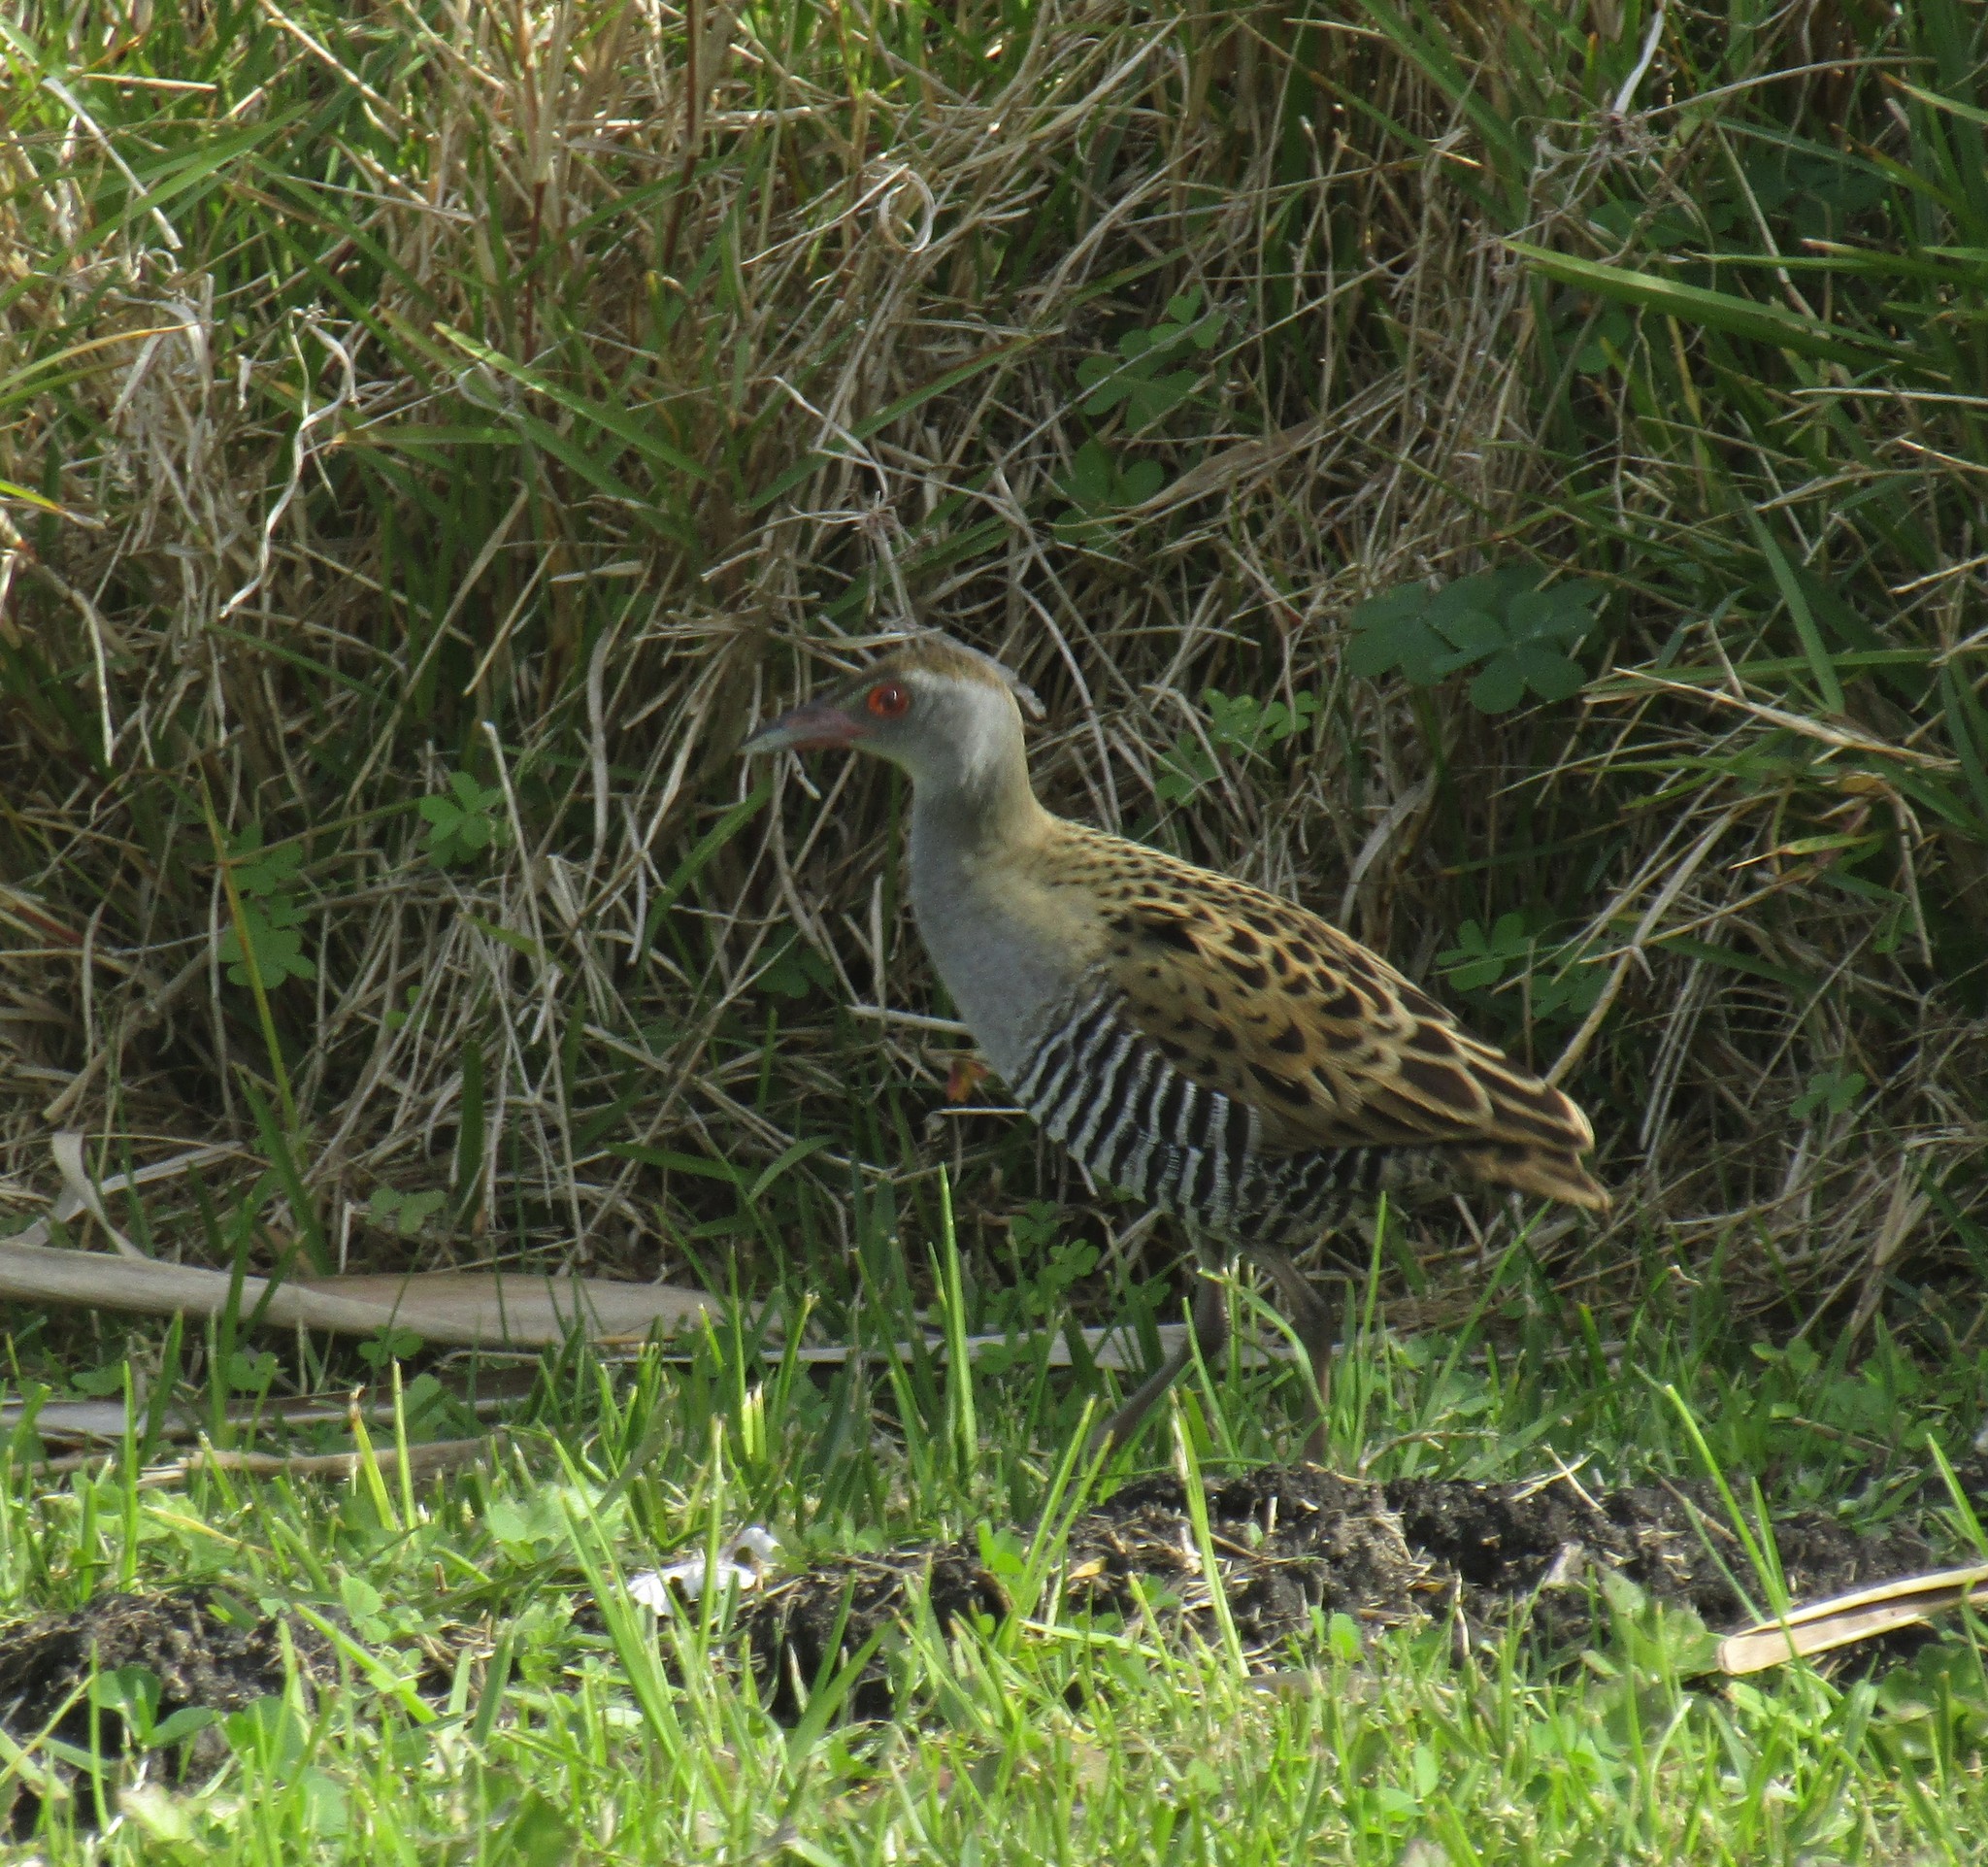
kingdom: Animalia
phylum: Chordata
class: Aves
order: Gruiformes
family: Rallidae
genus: Crex
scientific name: Crex egregia
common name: African crake
